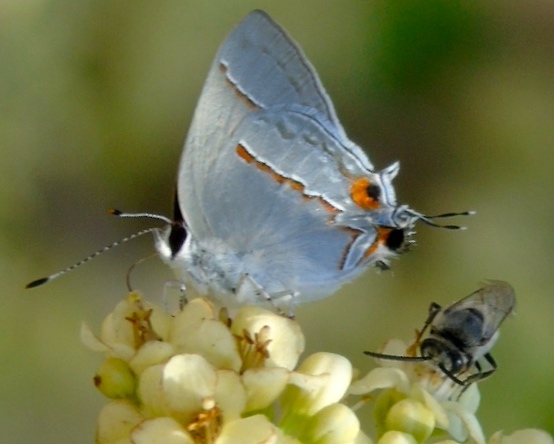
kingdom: Animalia
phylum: Arthropoda
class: Insecta
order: Lepidoptera
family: Lycaenidae
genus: Thecla
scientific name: Thecla serapio
